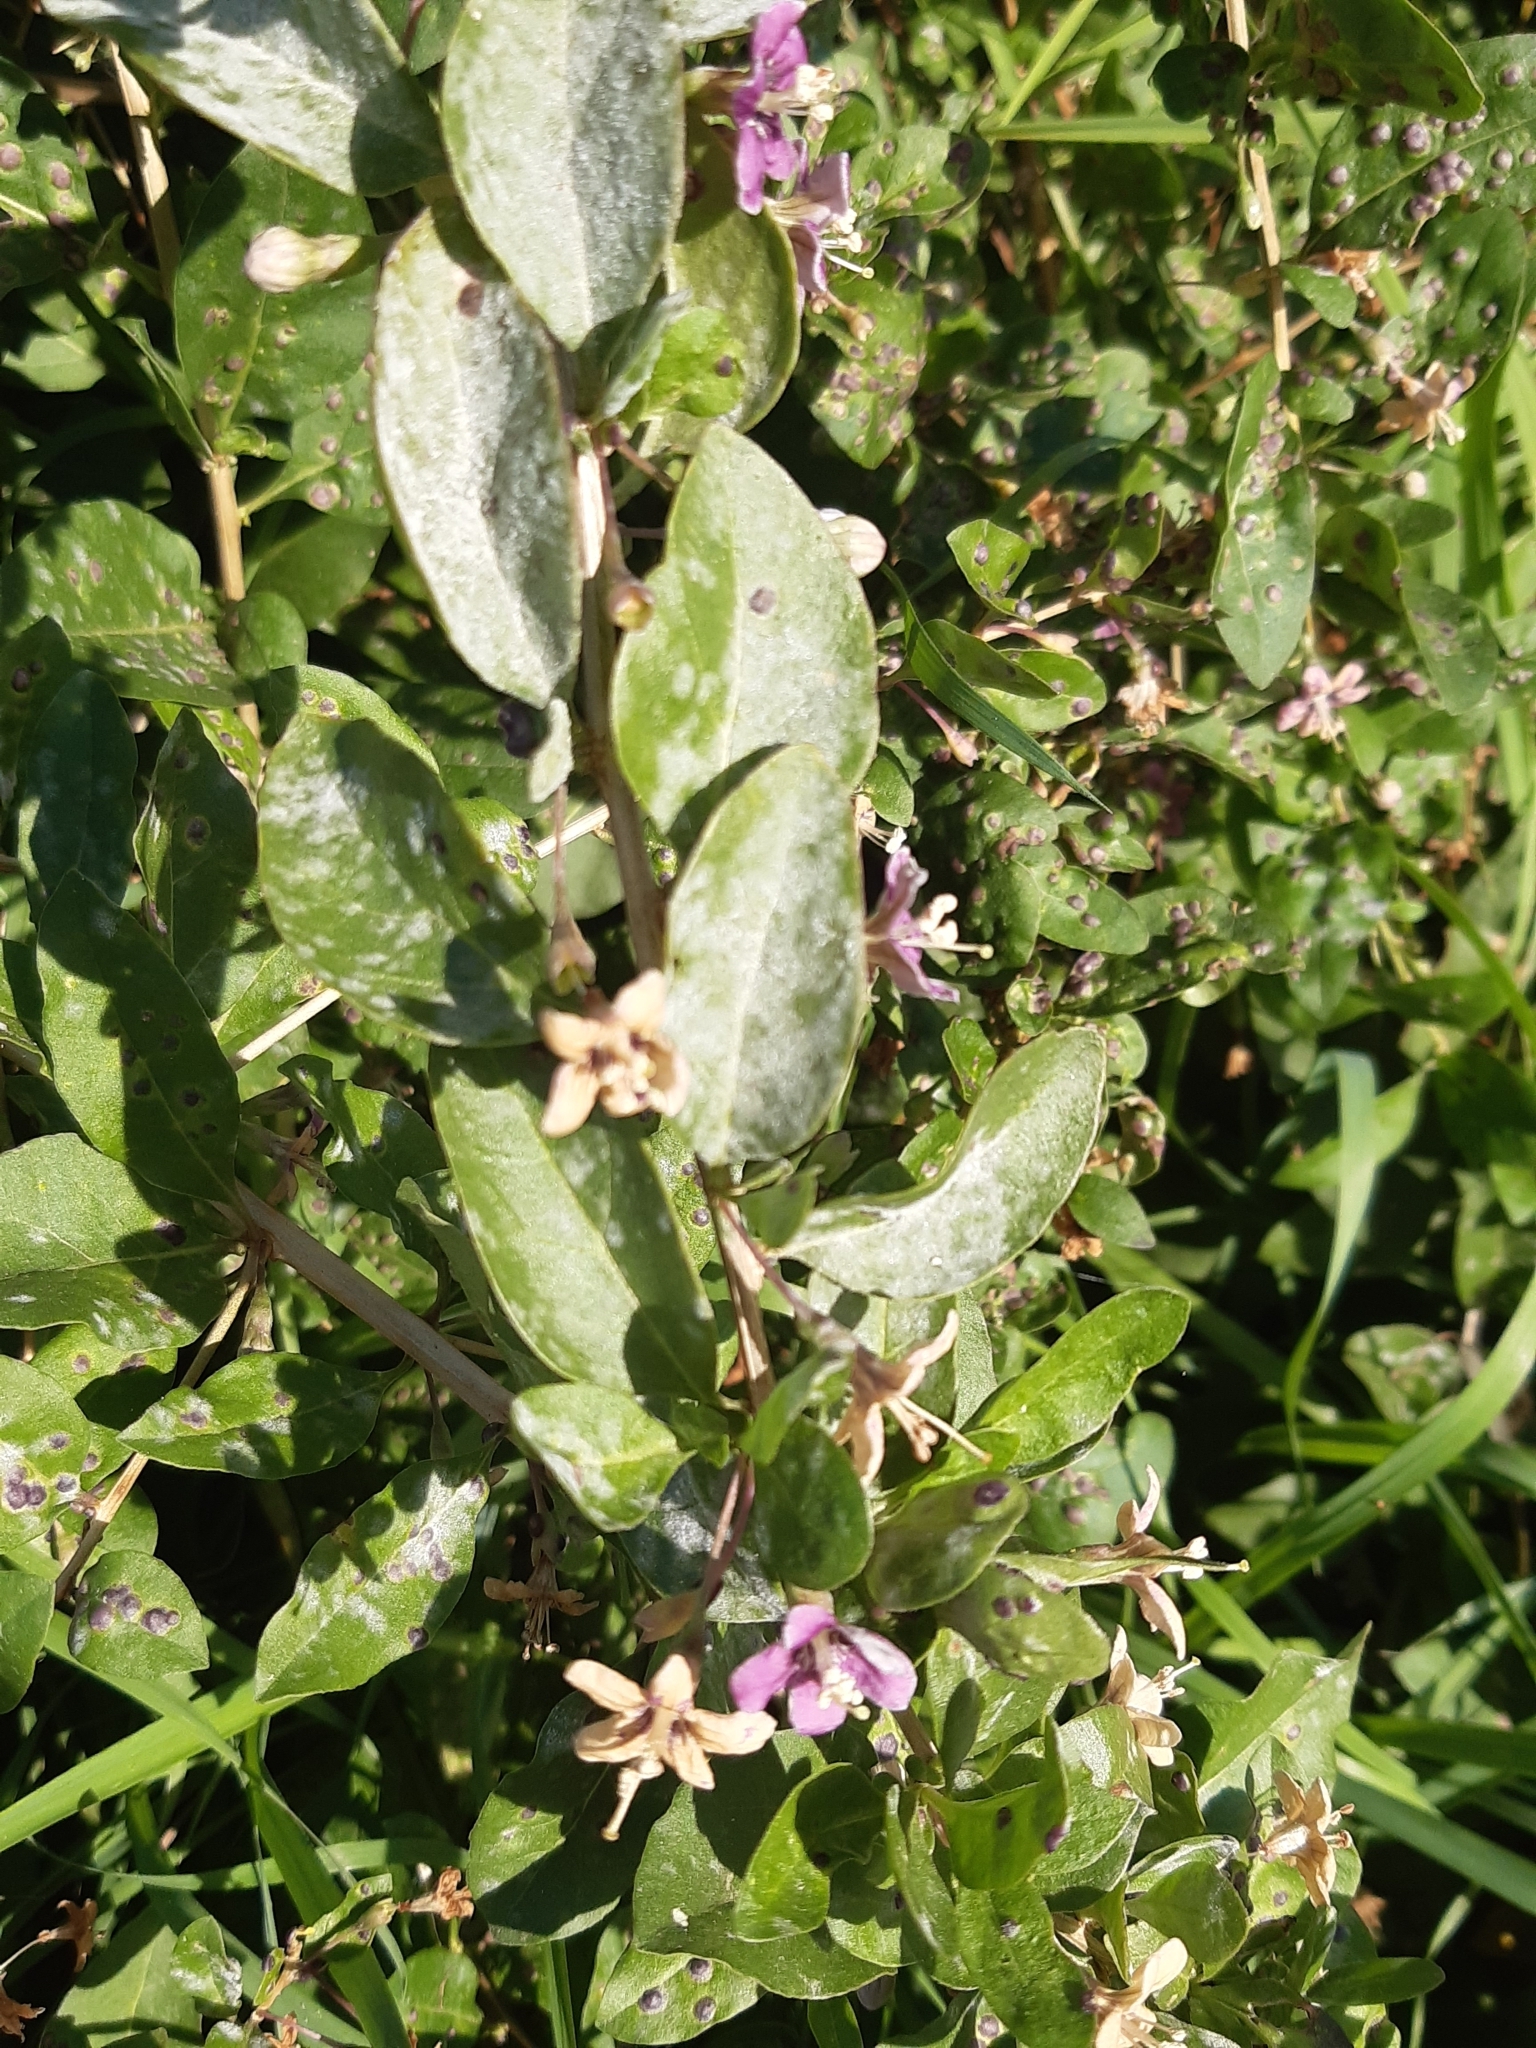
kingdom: Plantae
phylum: Tracheophyta
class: Magnoliopsida
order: Solanales
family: Solanaceae
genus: Lycium
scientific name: Lycium barbarum
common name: Duke of argyll's teaplant
